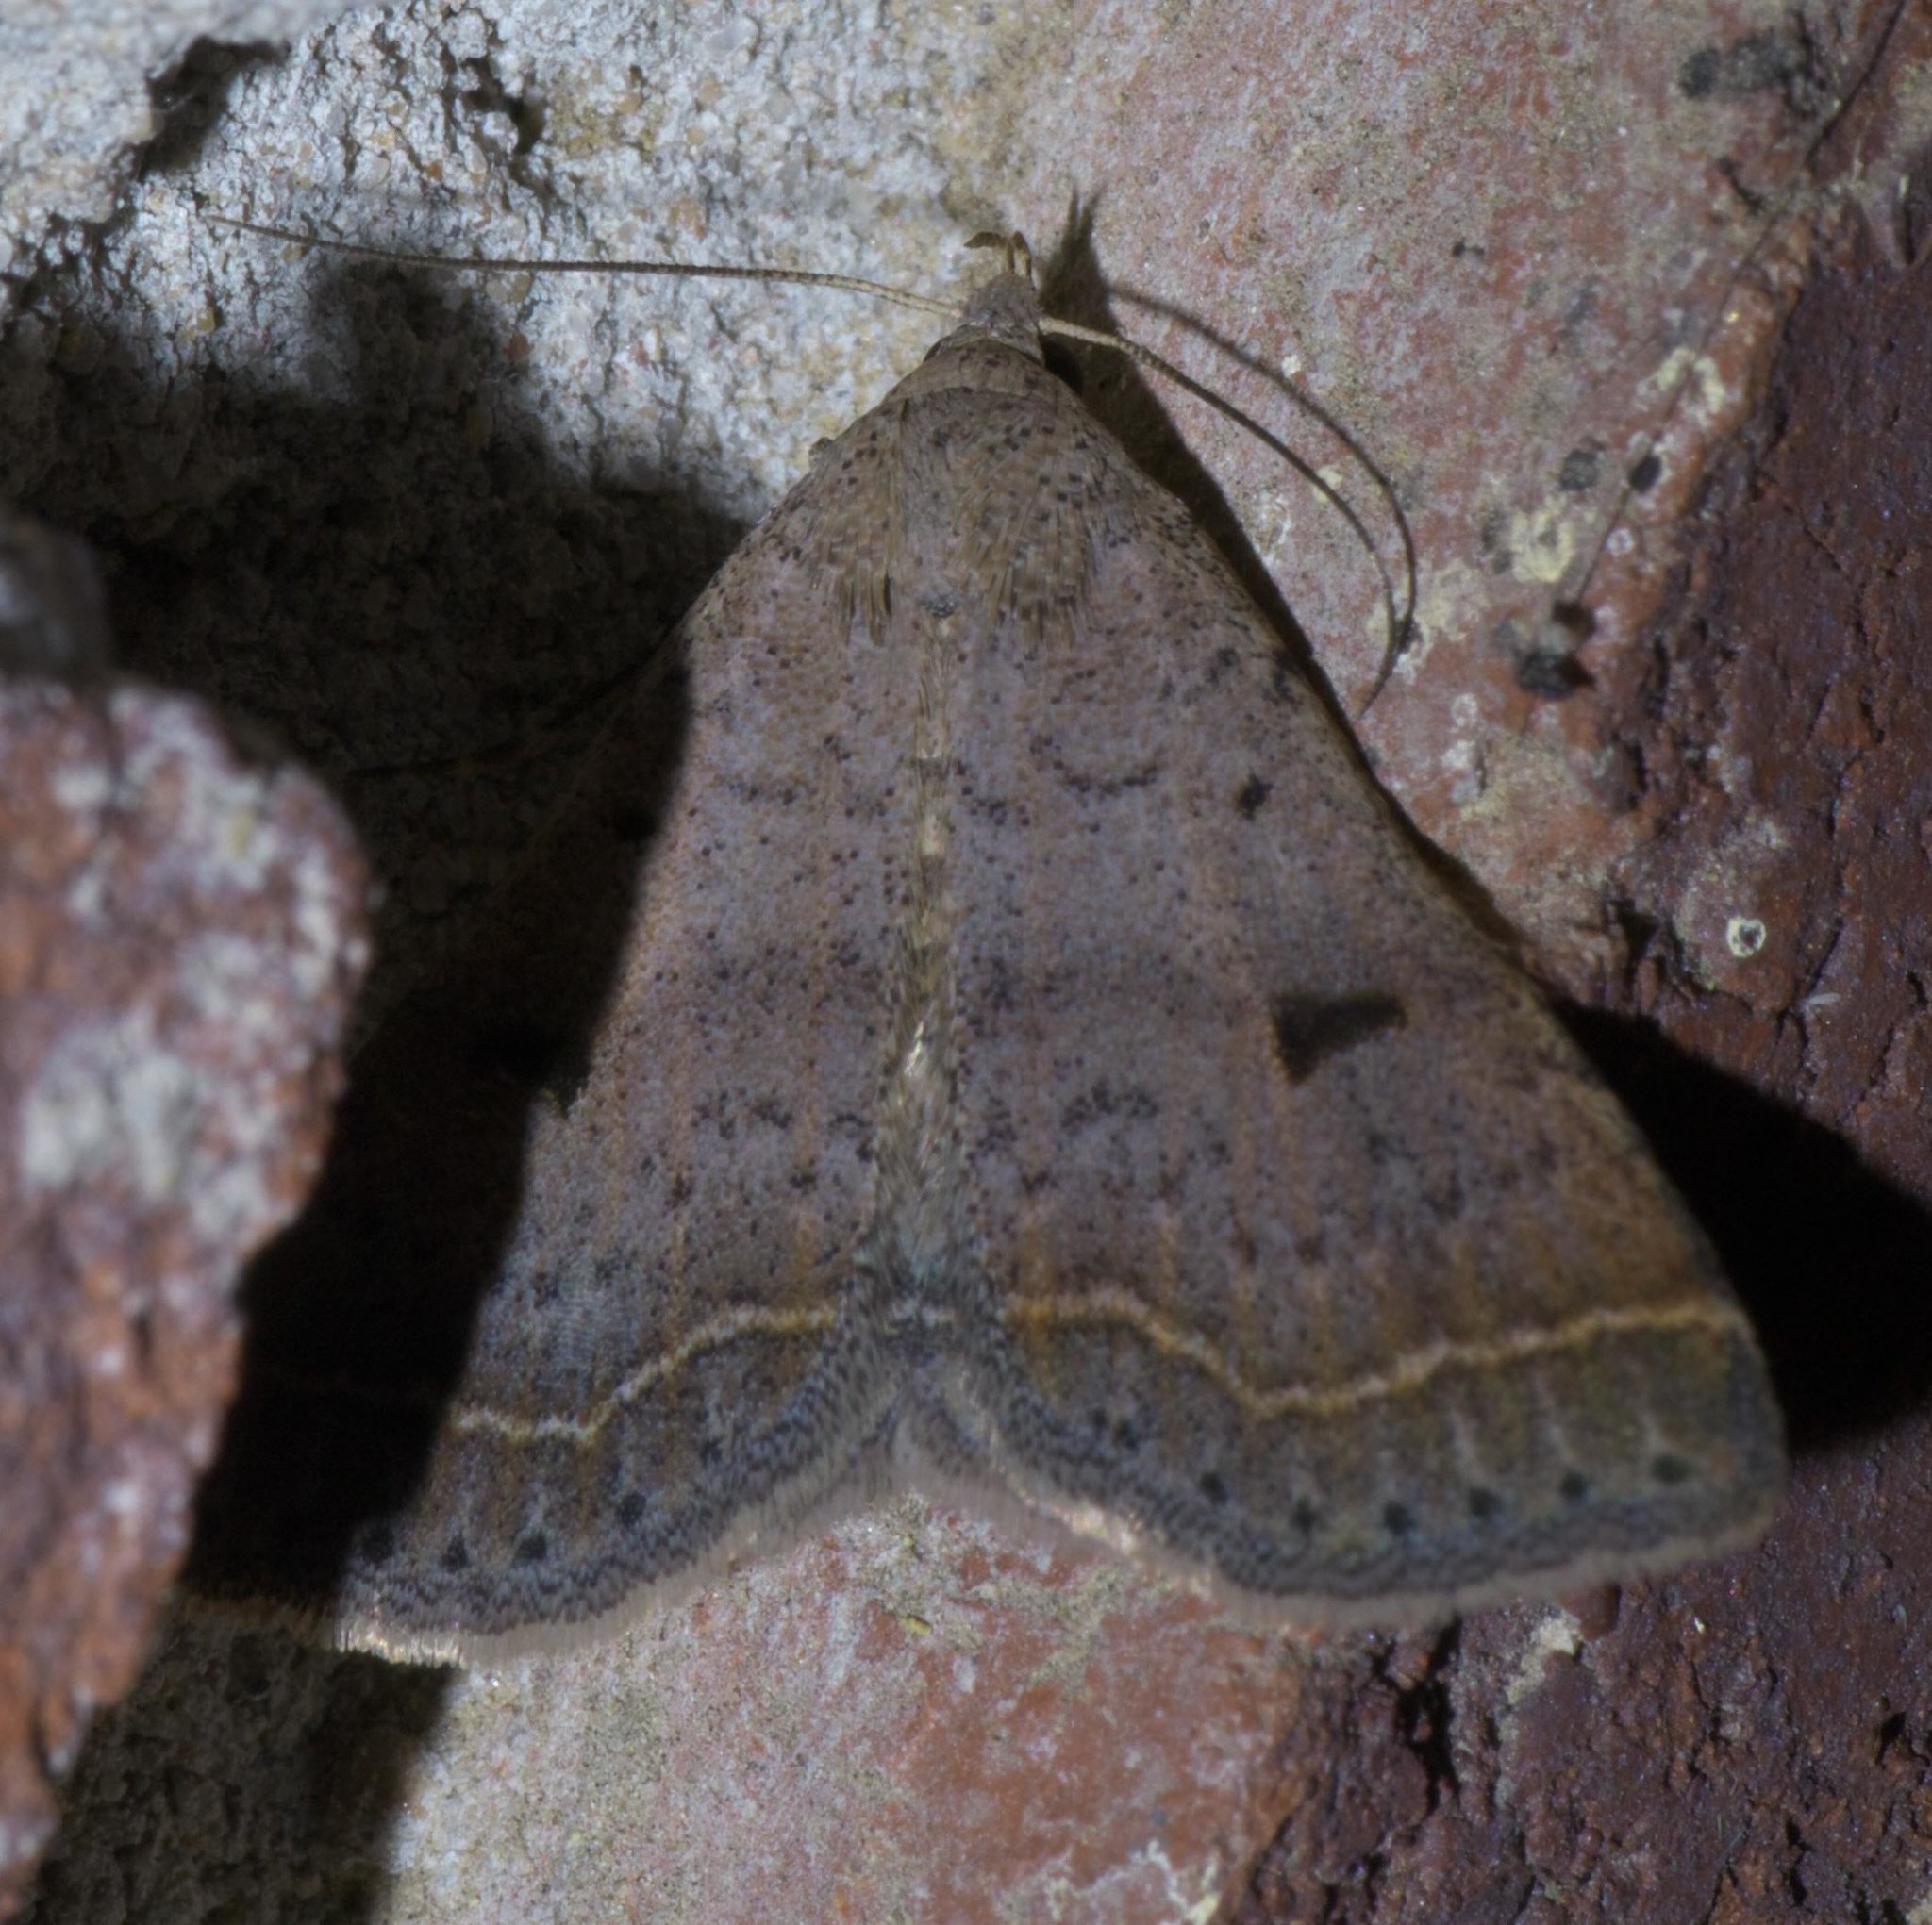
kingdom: Animalia
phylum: Arthropoda
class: Insecta
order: Lepidoptera
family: Erebidae
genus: Bleptina
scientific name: Bleptina caradrinalis
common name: Bent-winged owlet
